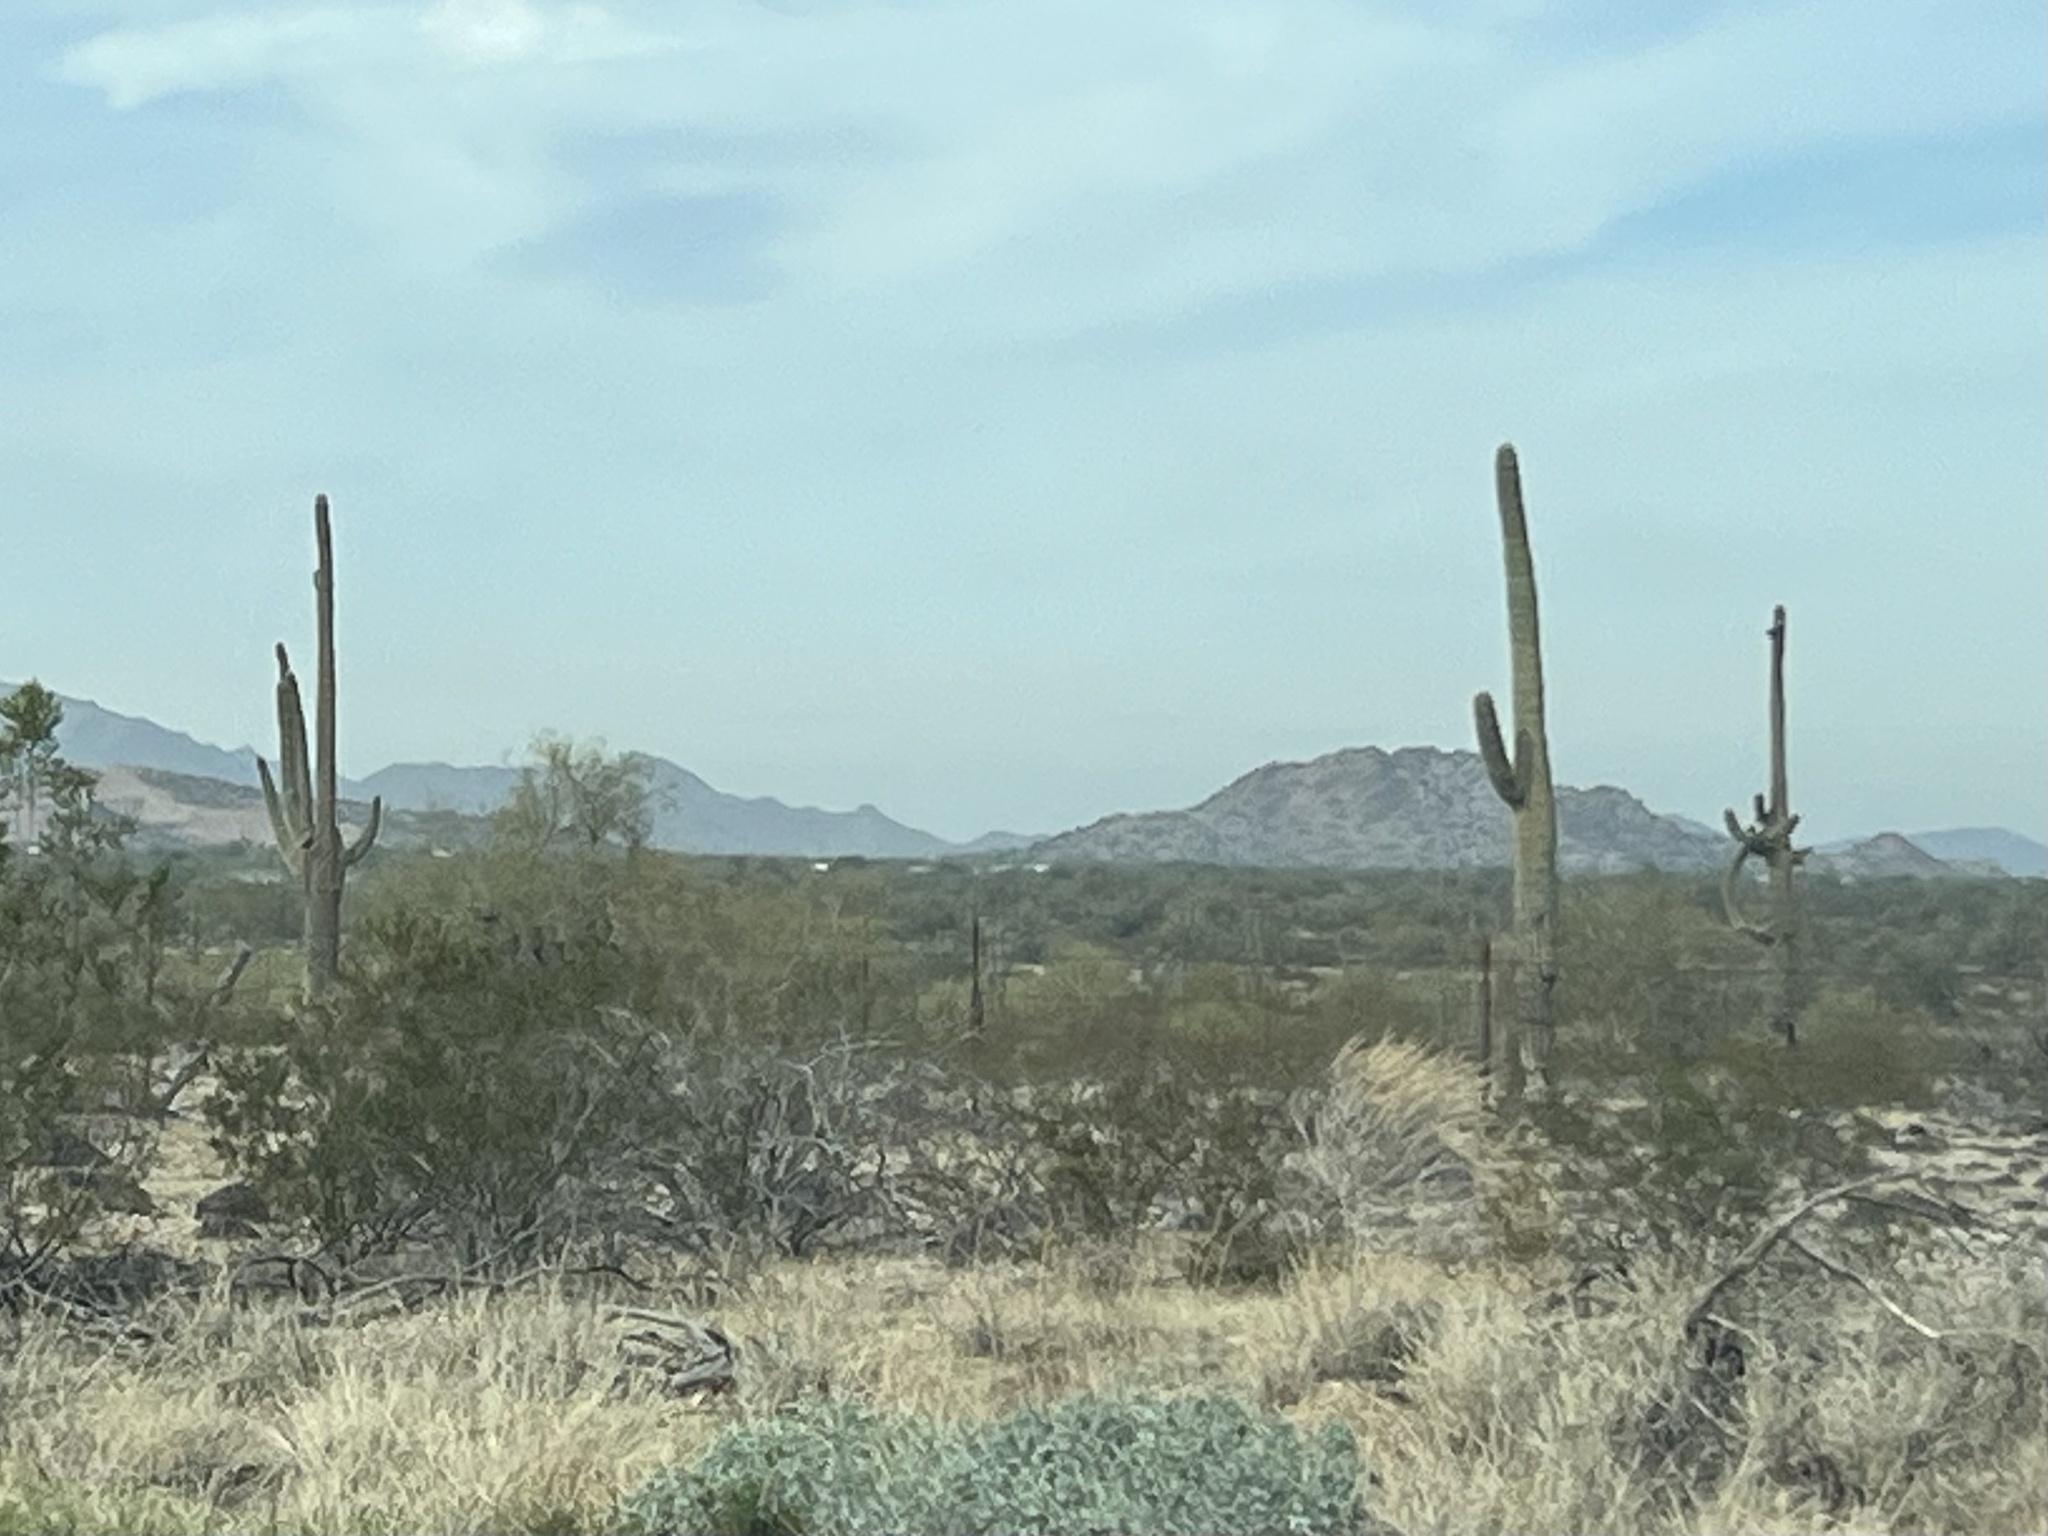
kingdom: Plantae
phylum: Tracheophyta
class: Magnoliopsida
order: Caryophyllales
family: Cactaceae
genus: Carnegiea
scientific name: Carnegiea gigantea
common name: Saguaro
